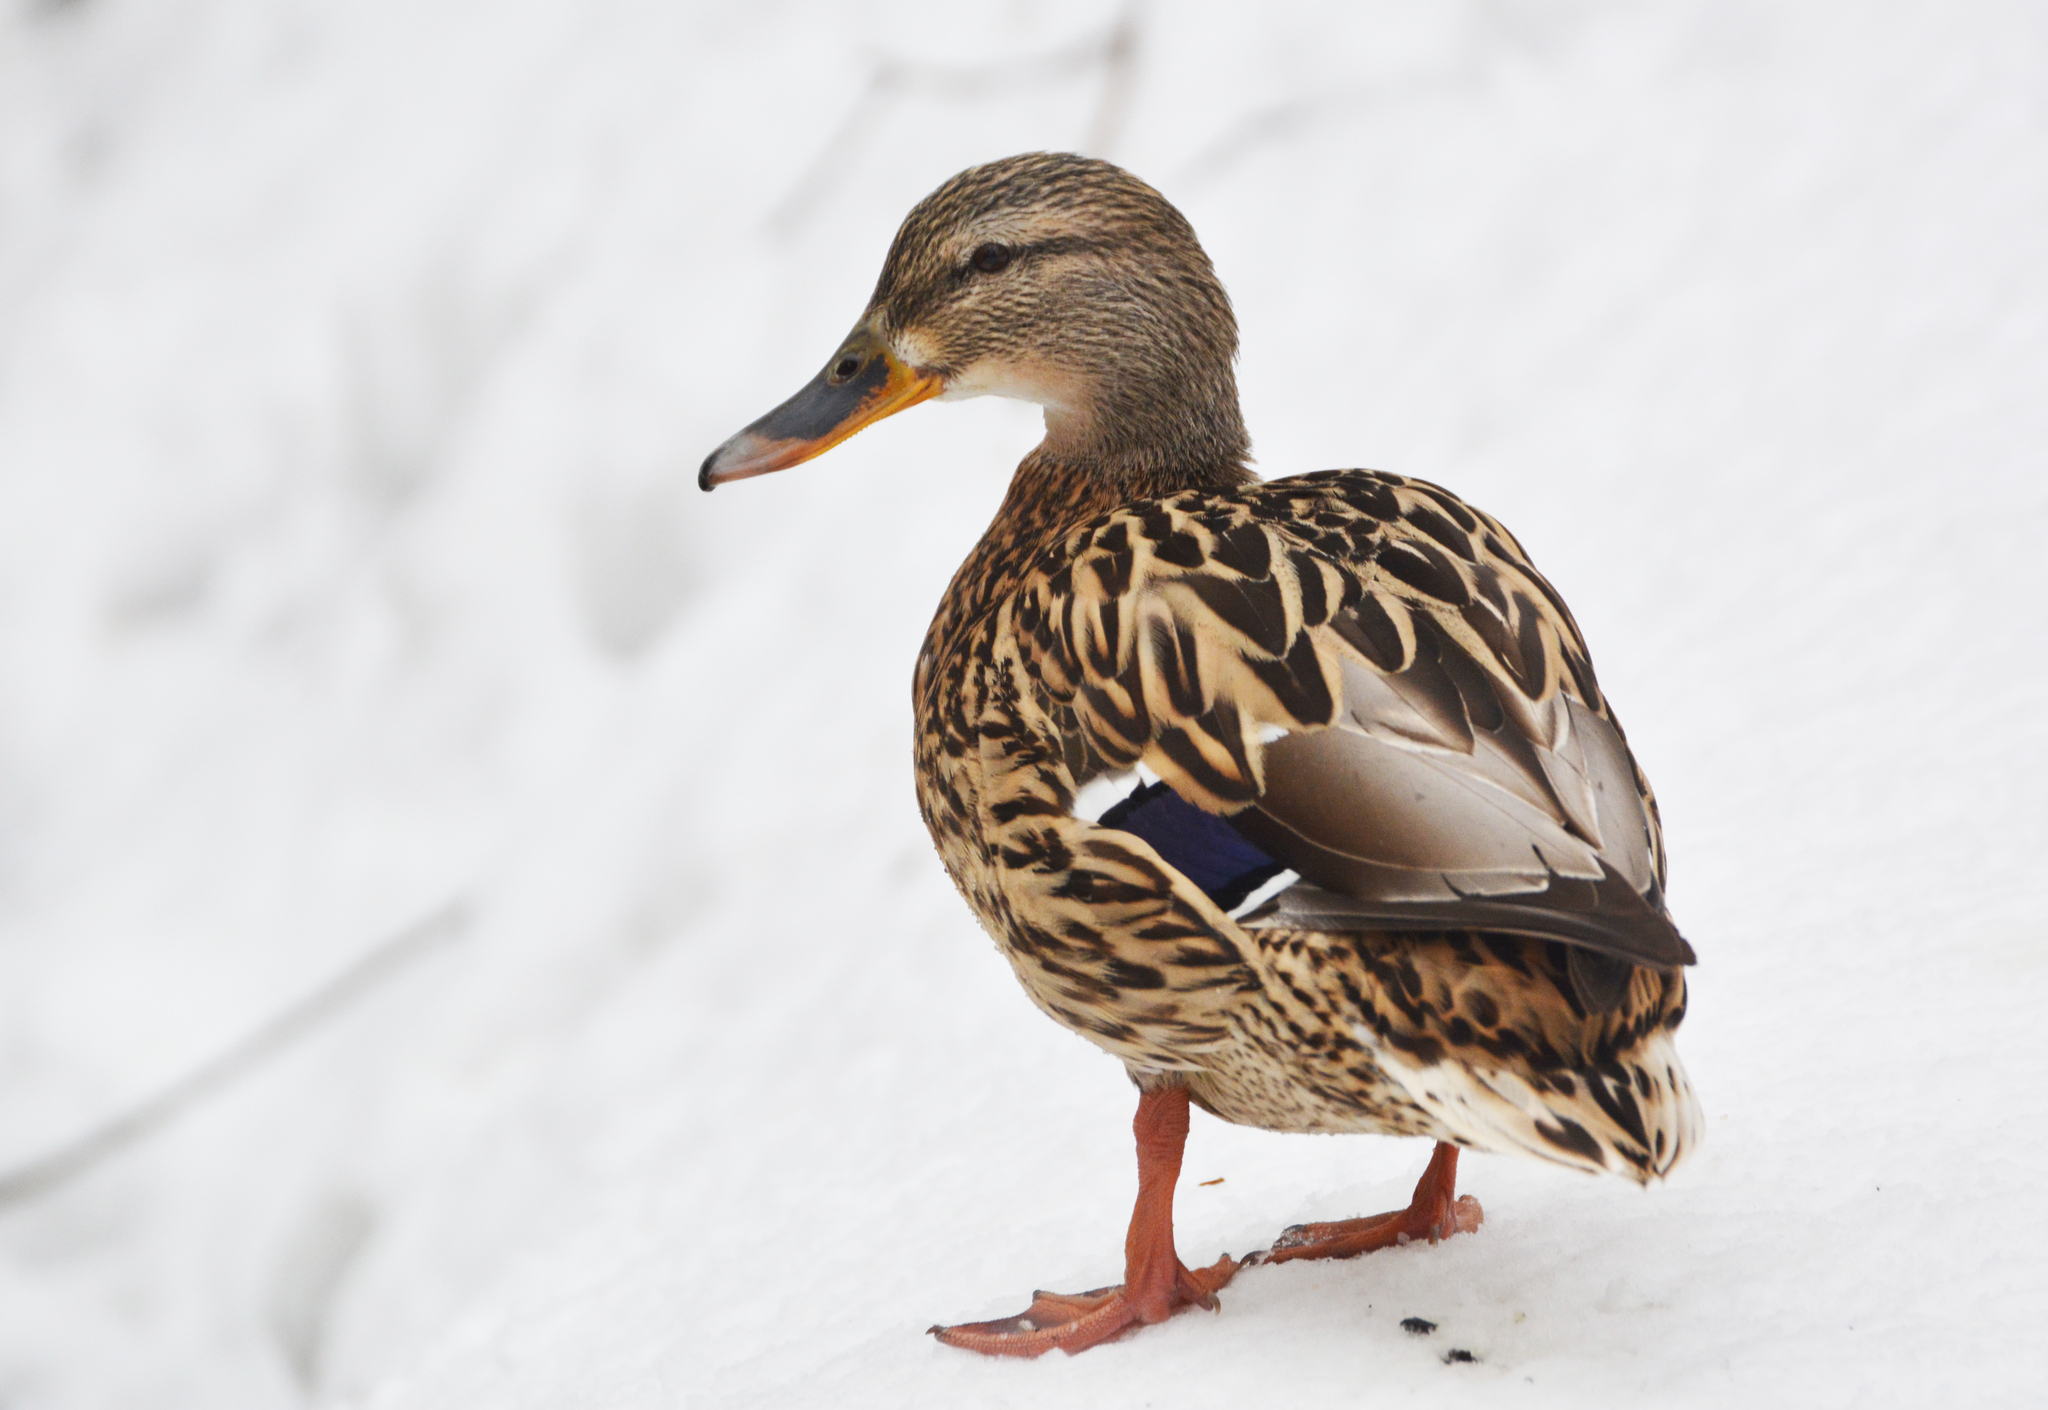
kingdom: Animalia
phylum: Chordata
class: Aves
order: Anseriformes
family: Anatidae
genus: Anas
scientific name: Anas platyrhynchos
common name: Mallard
